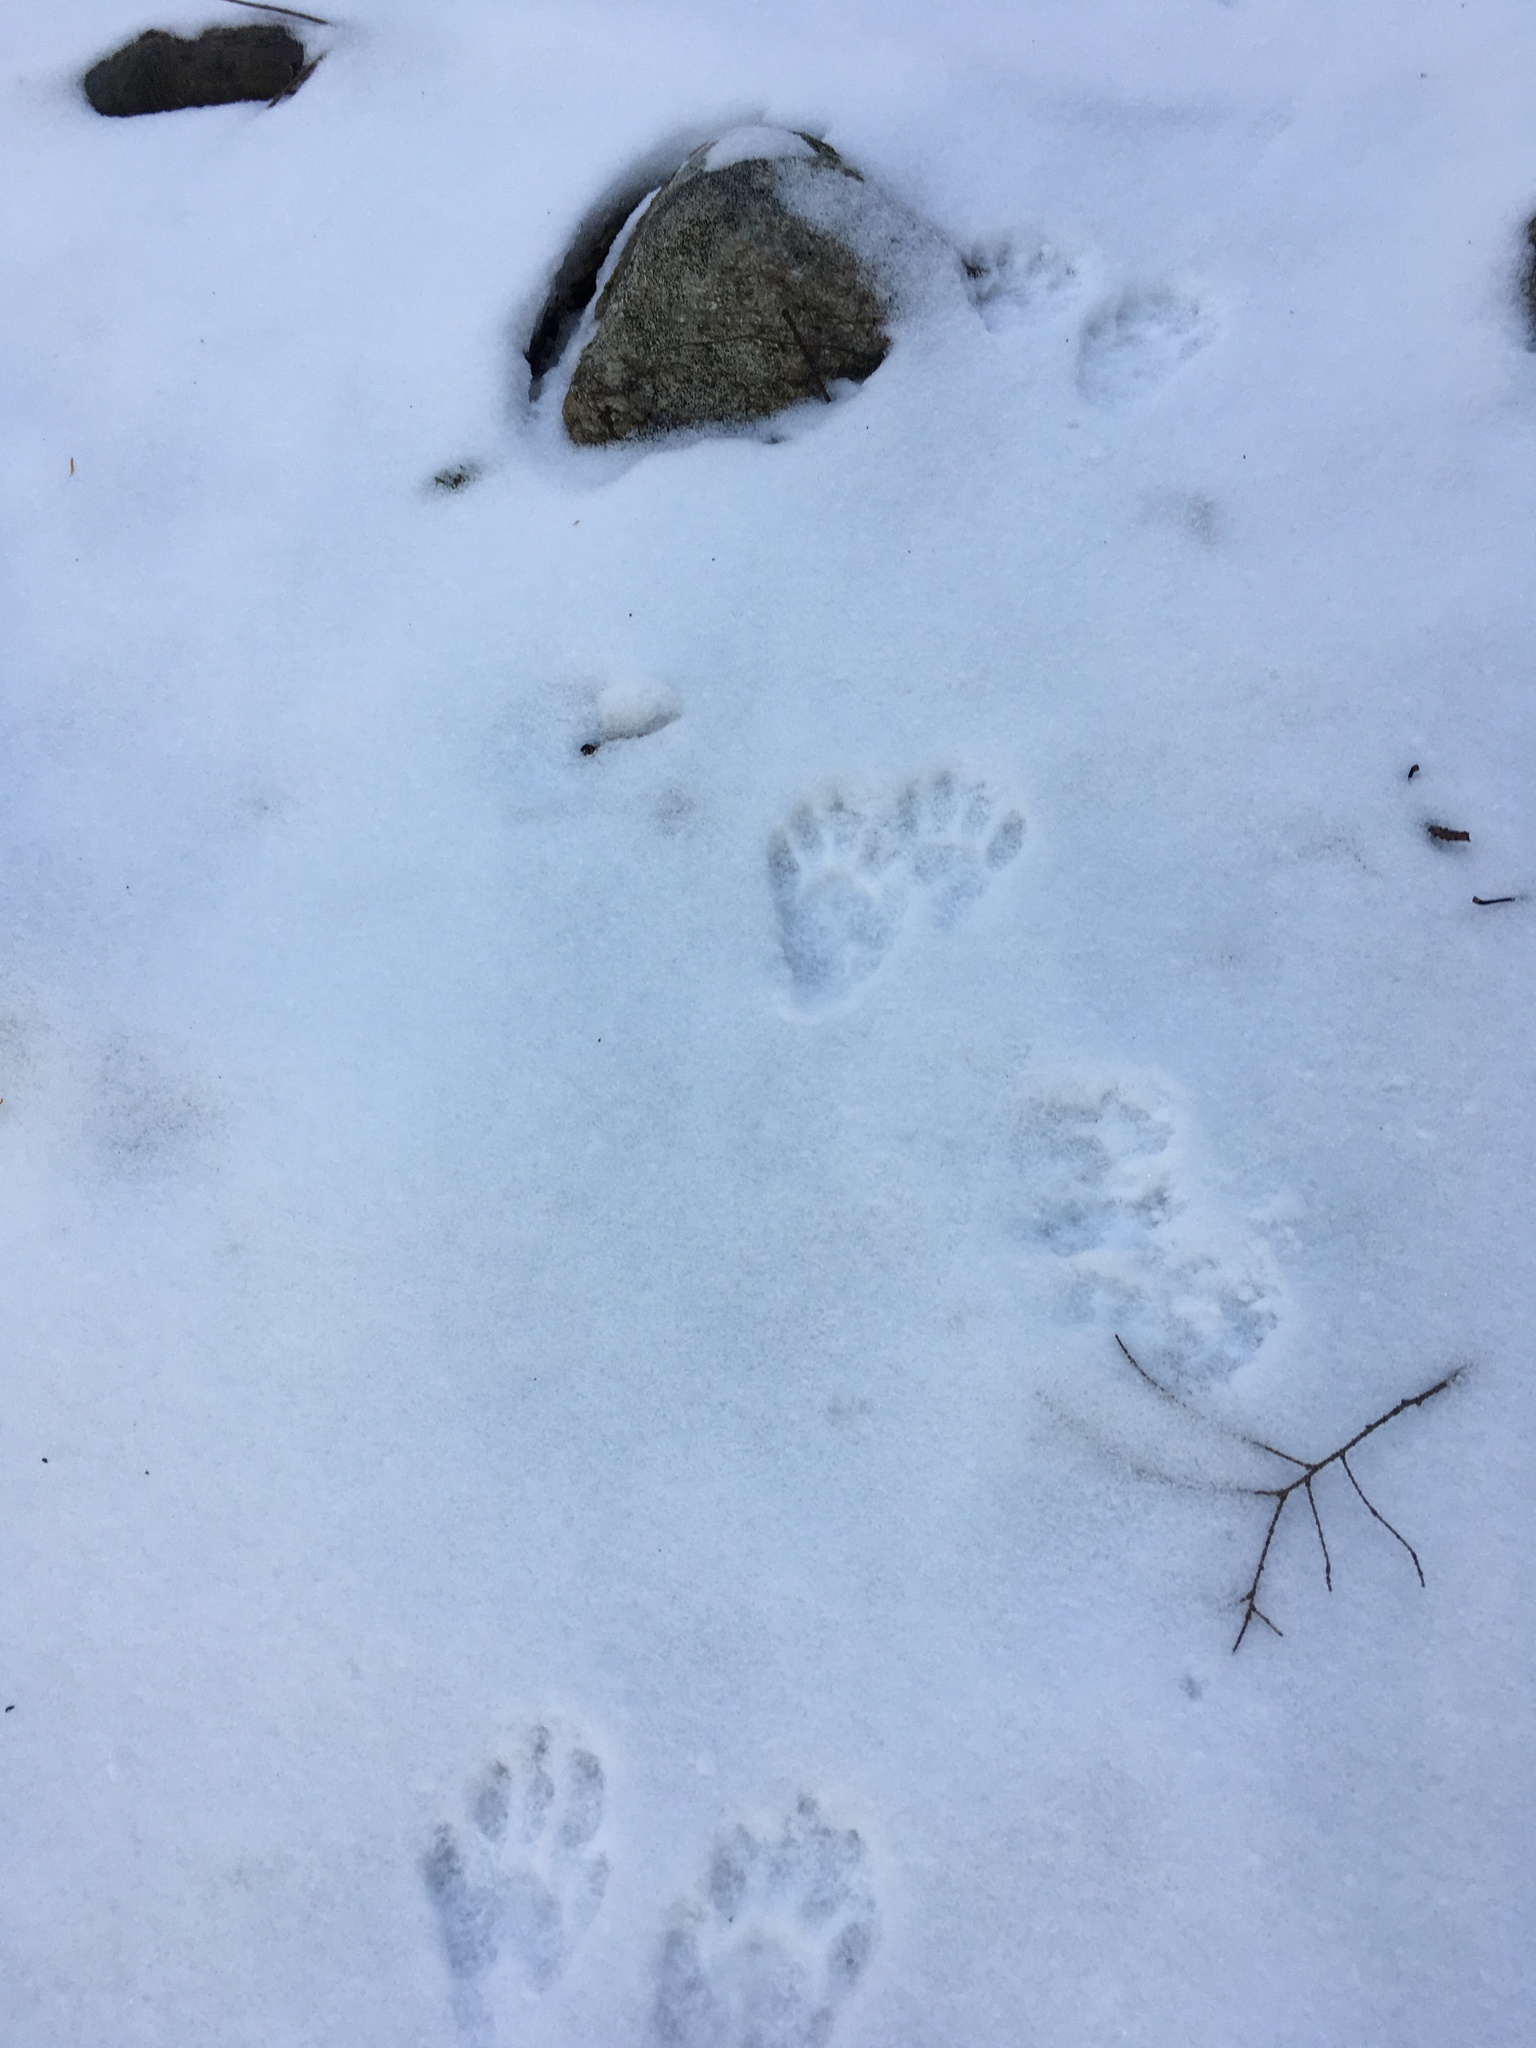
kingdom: Animalia
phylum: Chordata
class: Mammalia
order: Carnivora
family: Procyonidae
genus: Procyon
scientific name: Procyon lotor
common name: Raccoon
